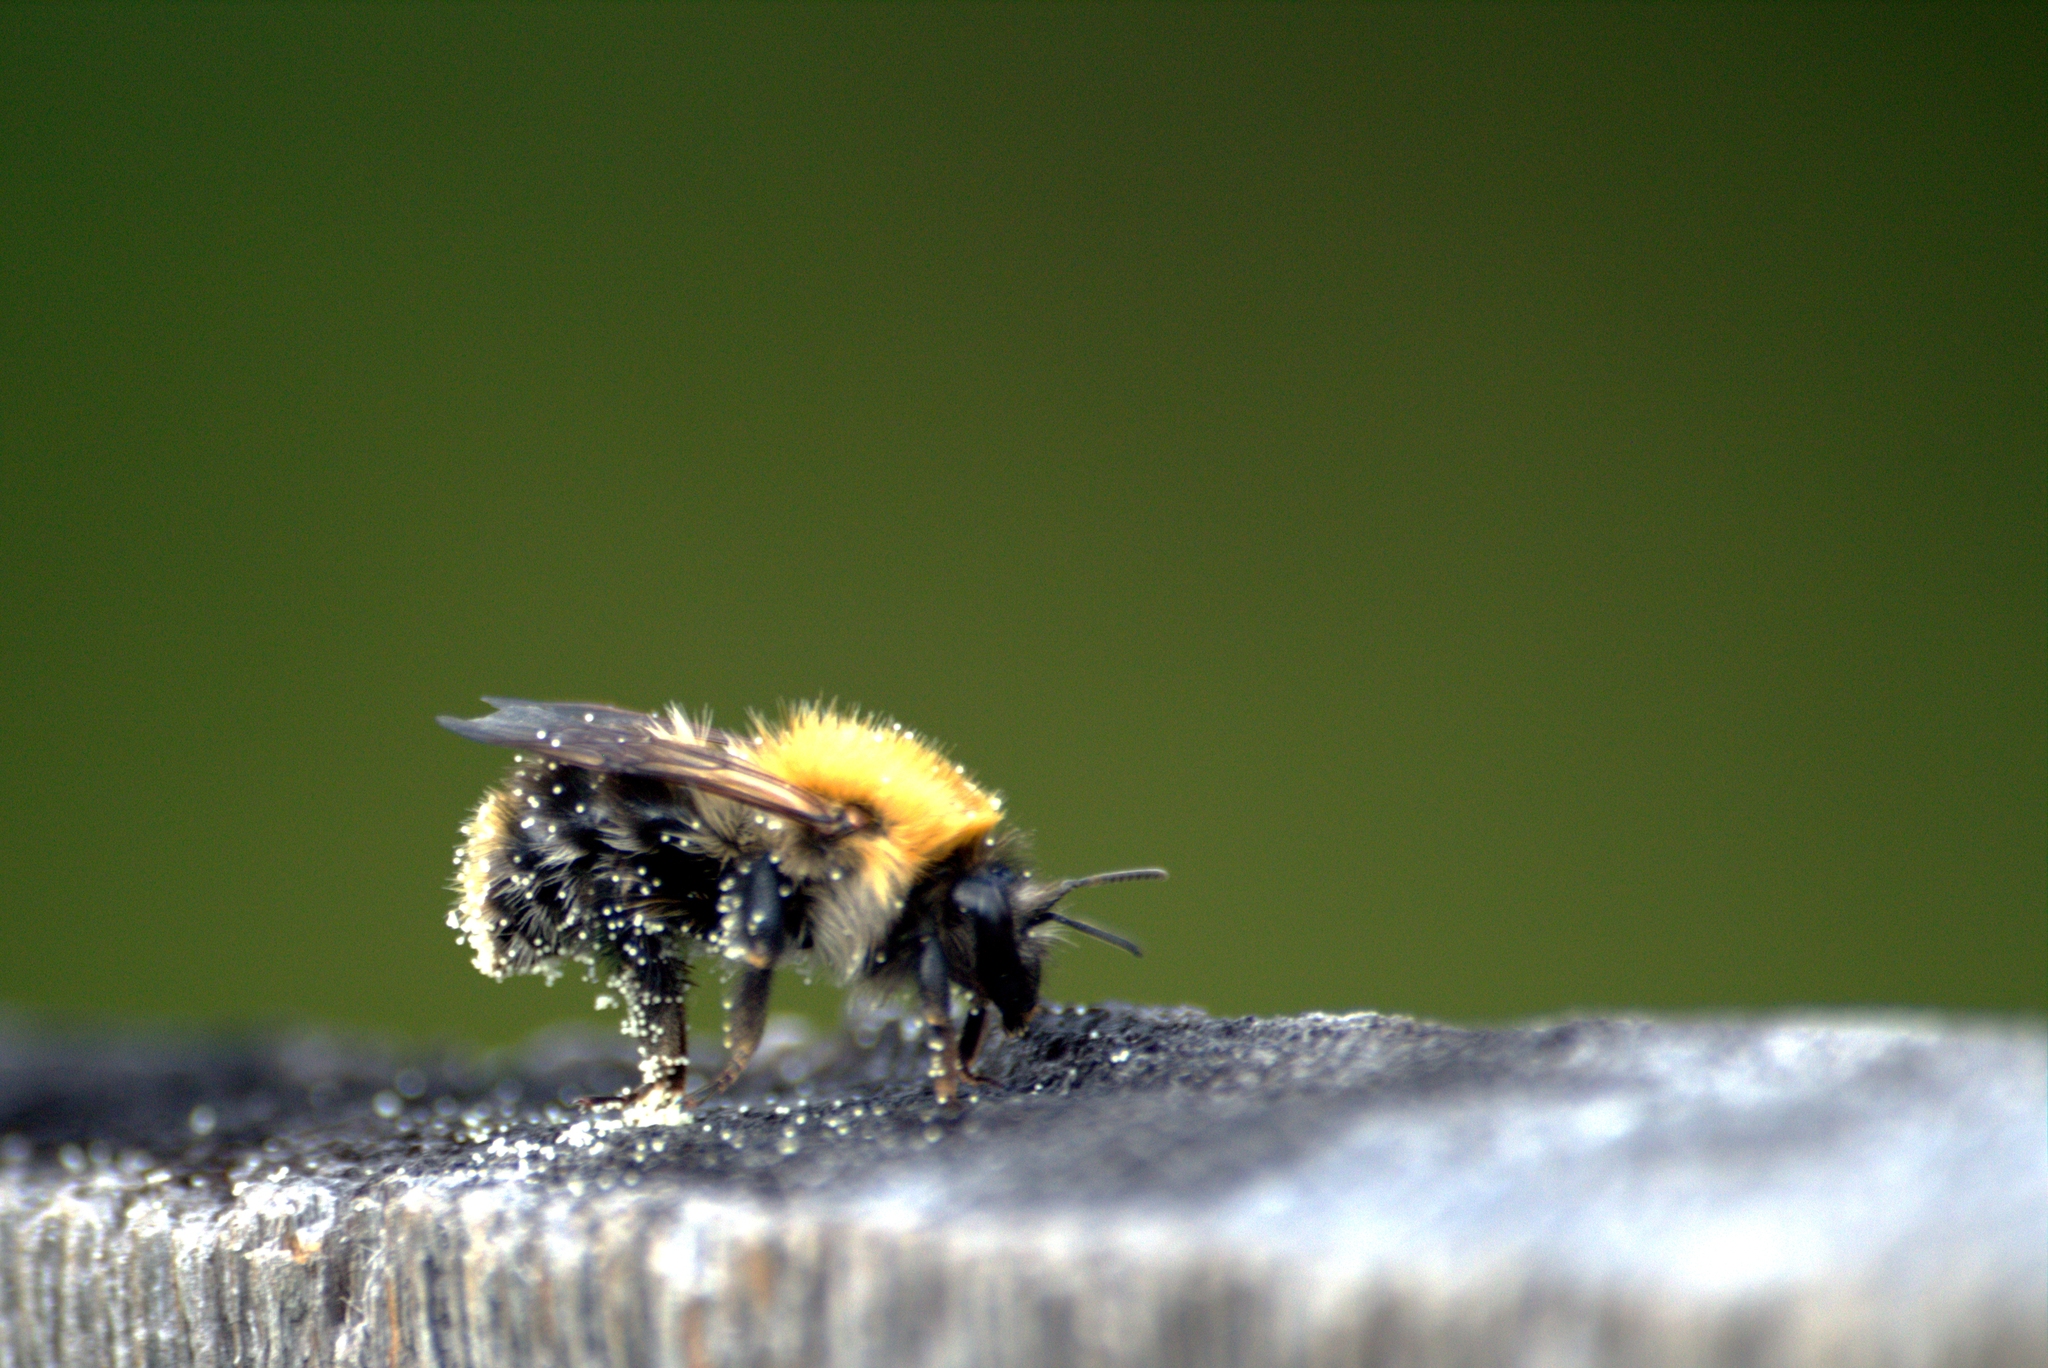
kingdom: Animalia
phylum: Arthropoda
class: Insecta
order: Hymenoptera
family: Apidae
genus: Bombus
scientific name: Bombus pascuorum
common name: Common carder bee
